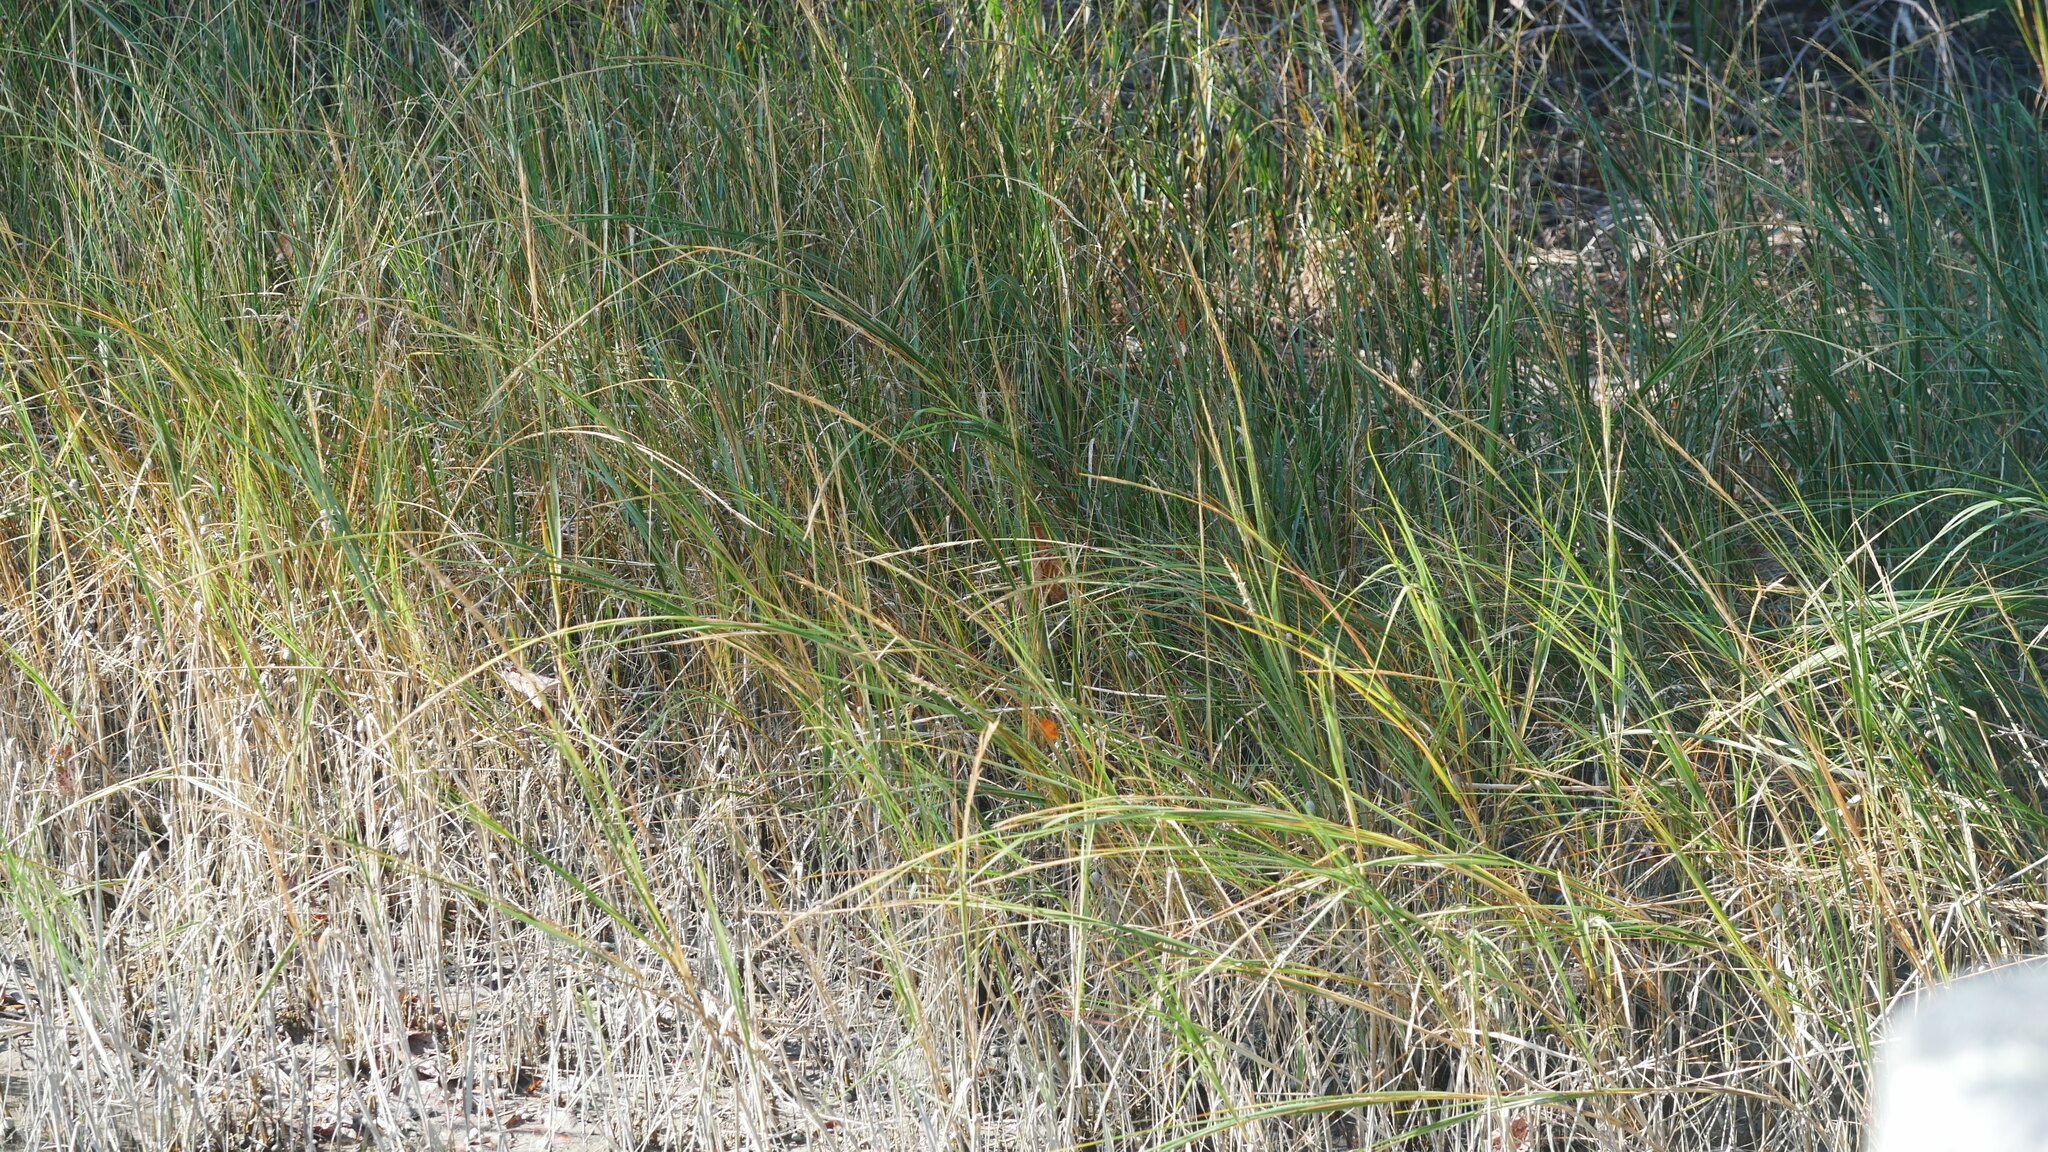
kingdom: Animalia
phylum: Arthropoda
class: Malacostraca
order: Isopoda
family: Detonidae
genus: Armadilloniscus
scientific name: Armadilloniscus ellipticus
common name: Pillbug
